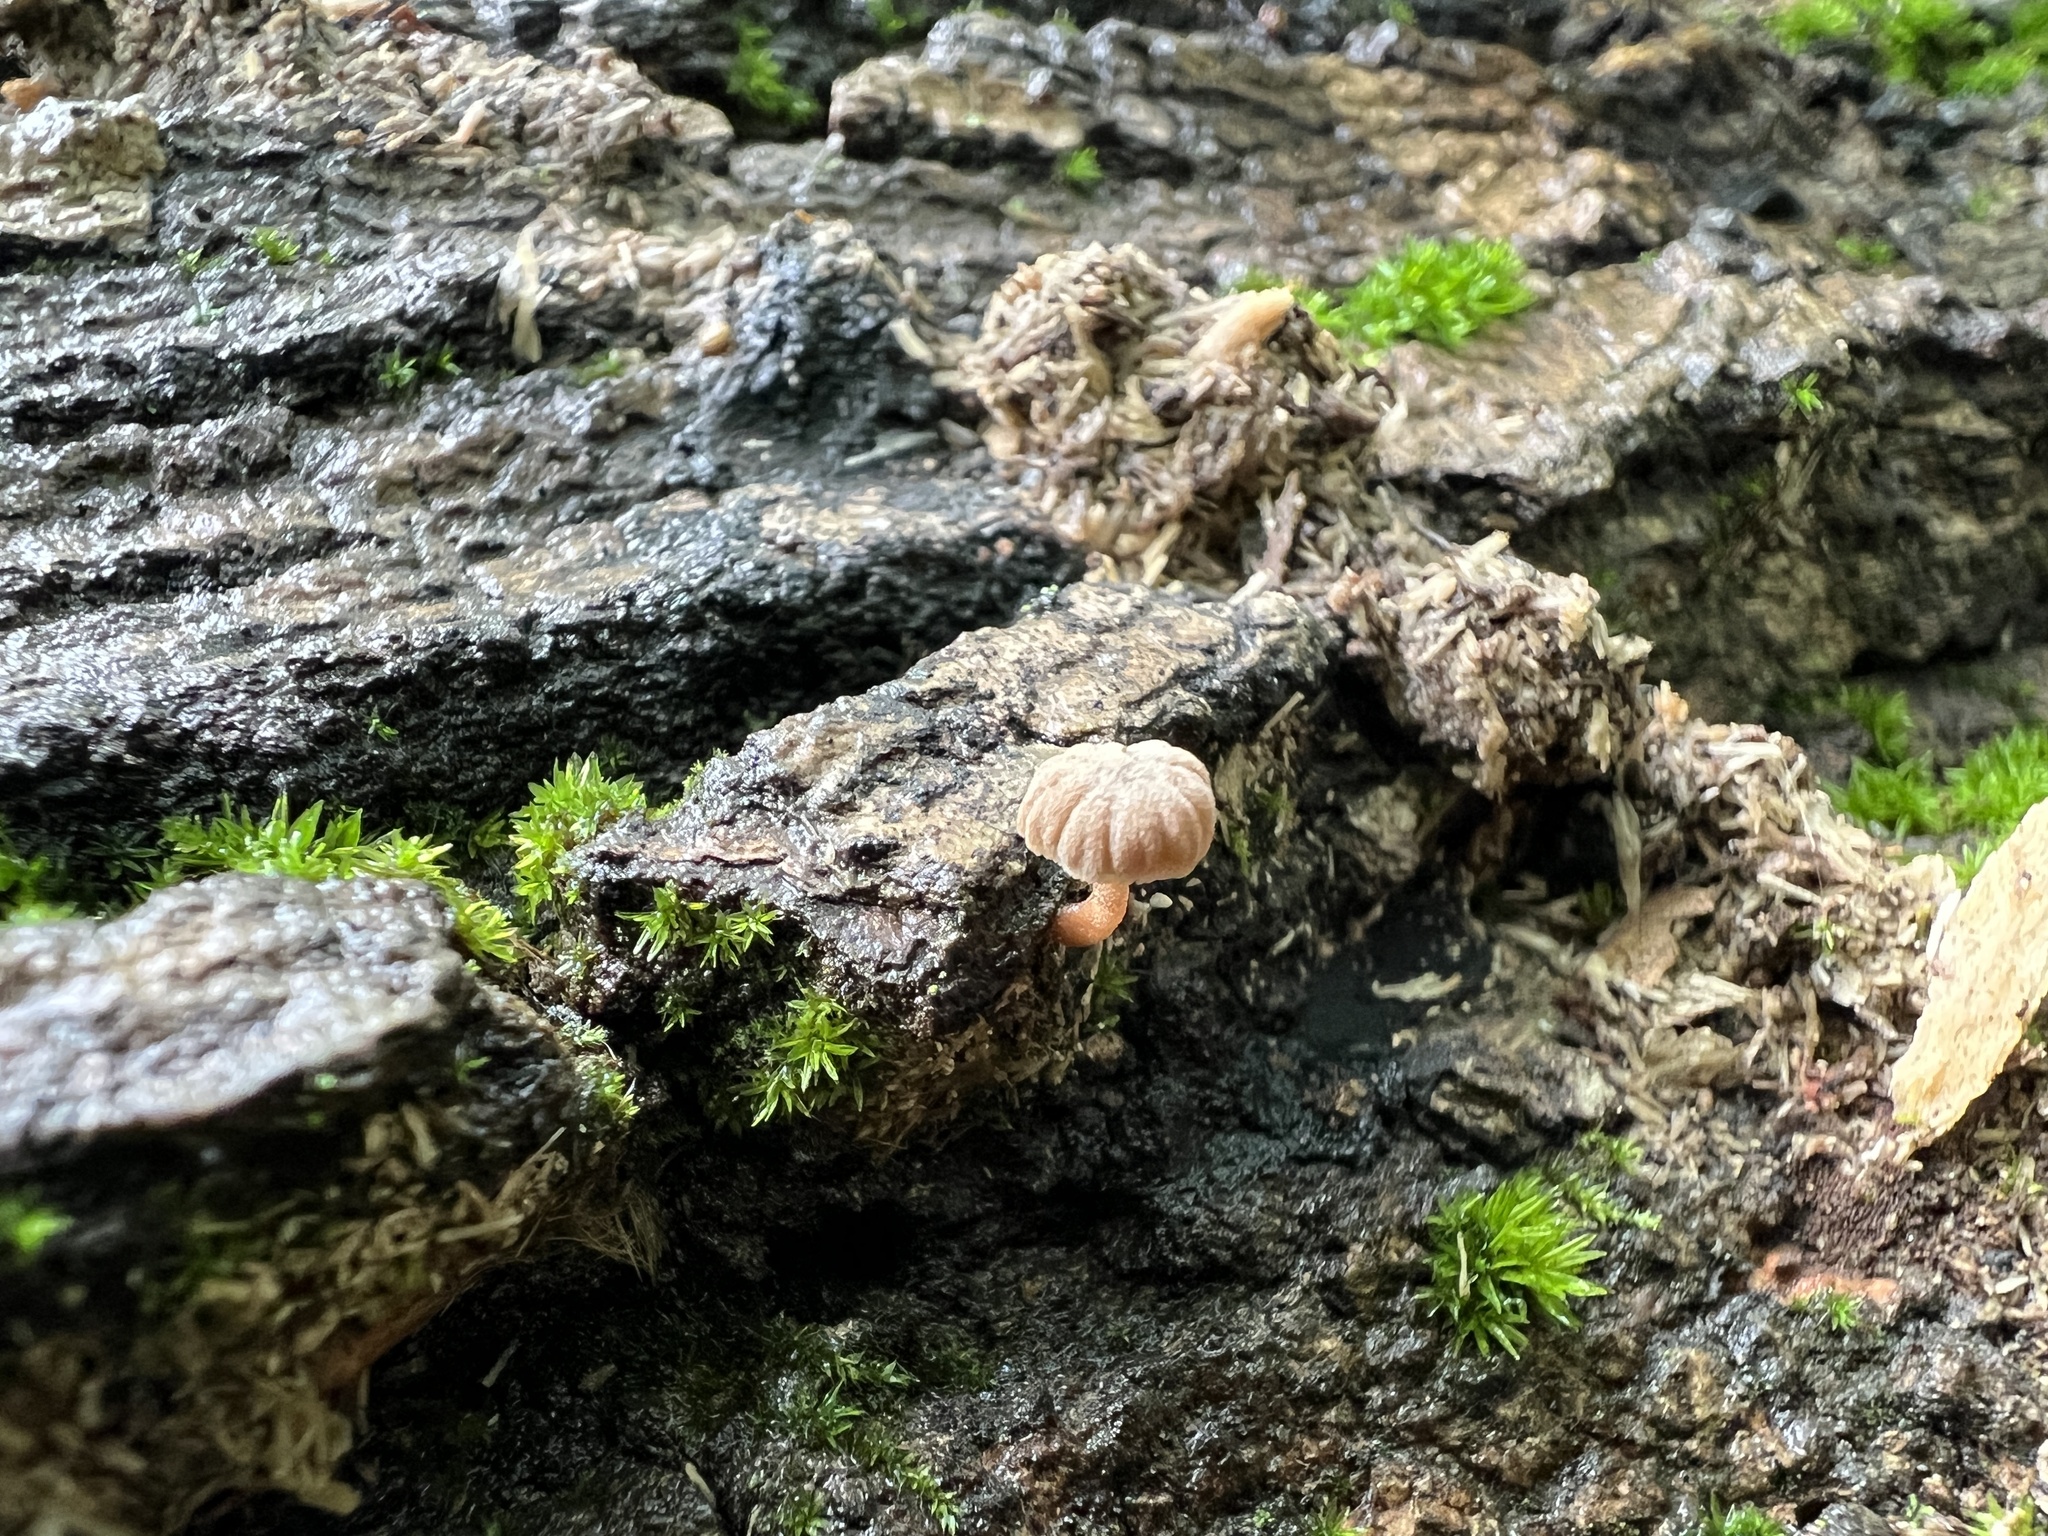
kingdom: Fungi
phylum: Basidiomycota
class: Agaricomycetes
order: Agaricales
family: Mycenaceae
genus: Mycena
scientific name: Mycena meliigena
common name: Mauve bonnet
